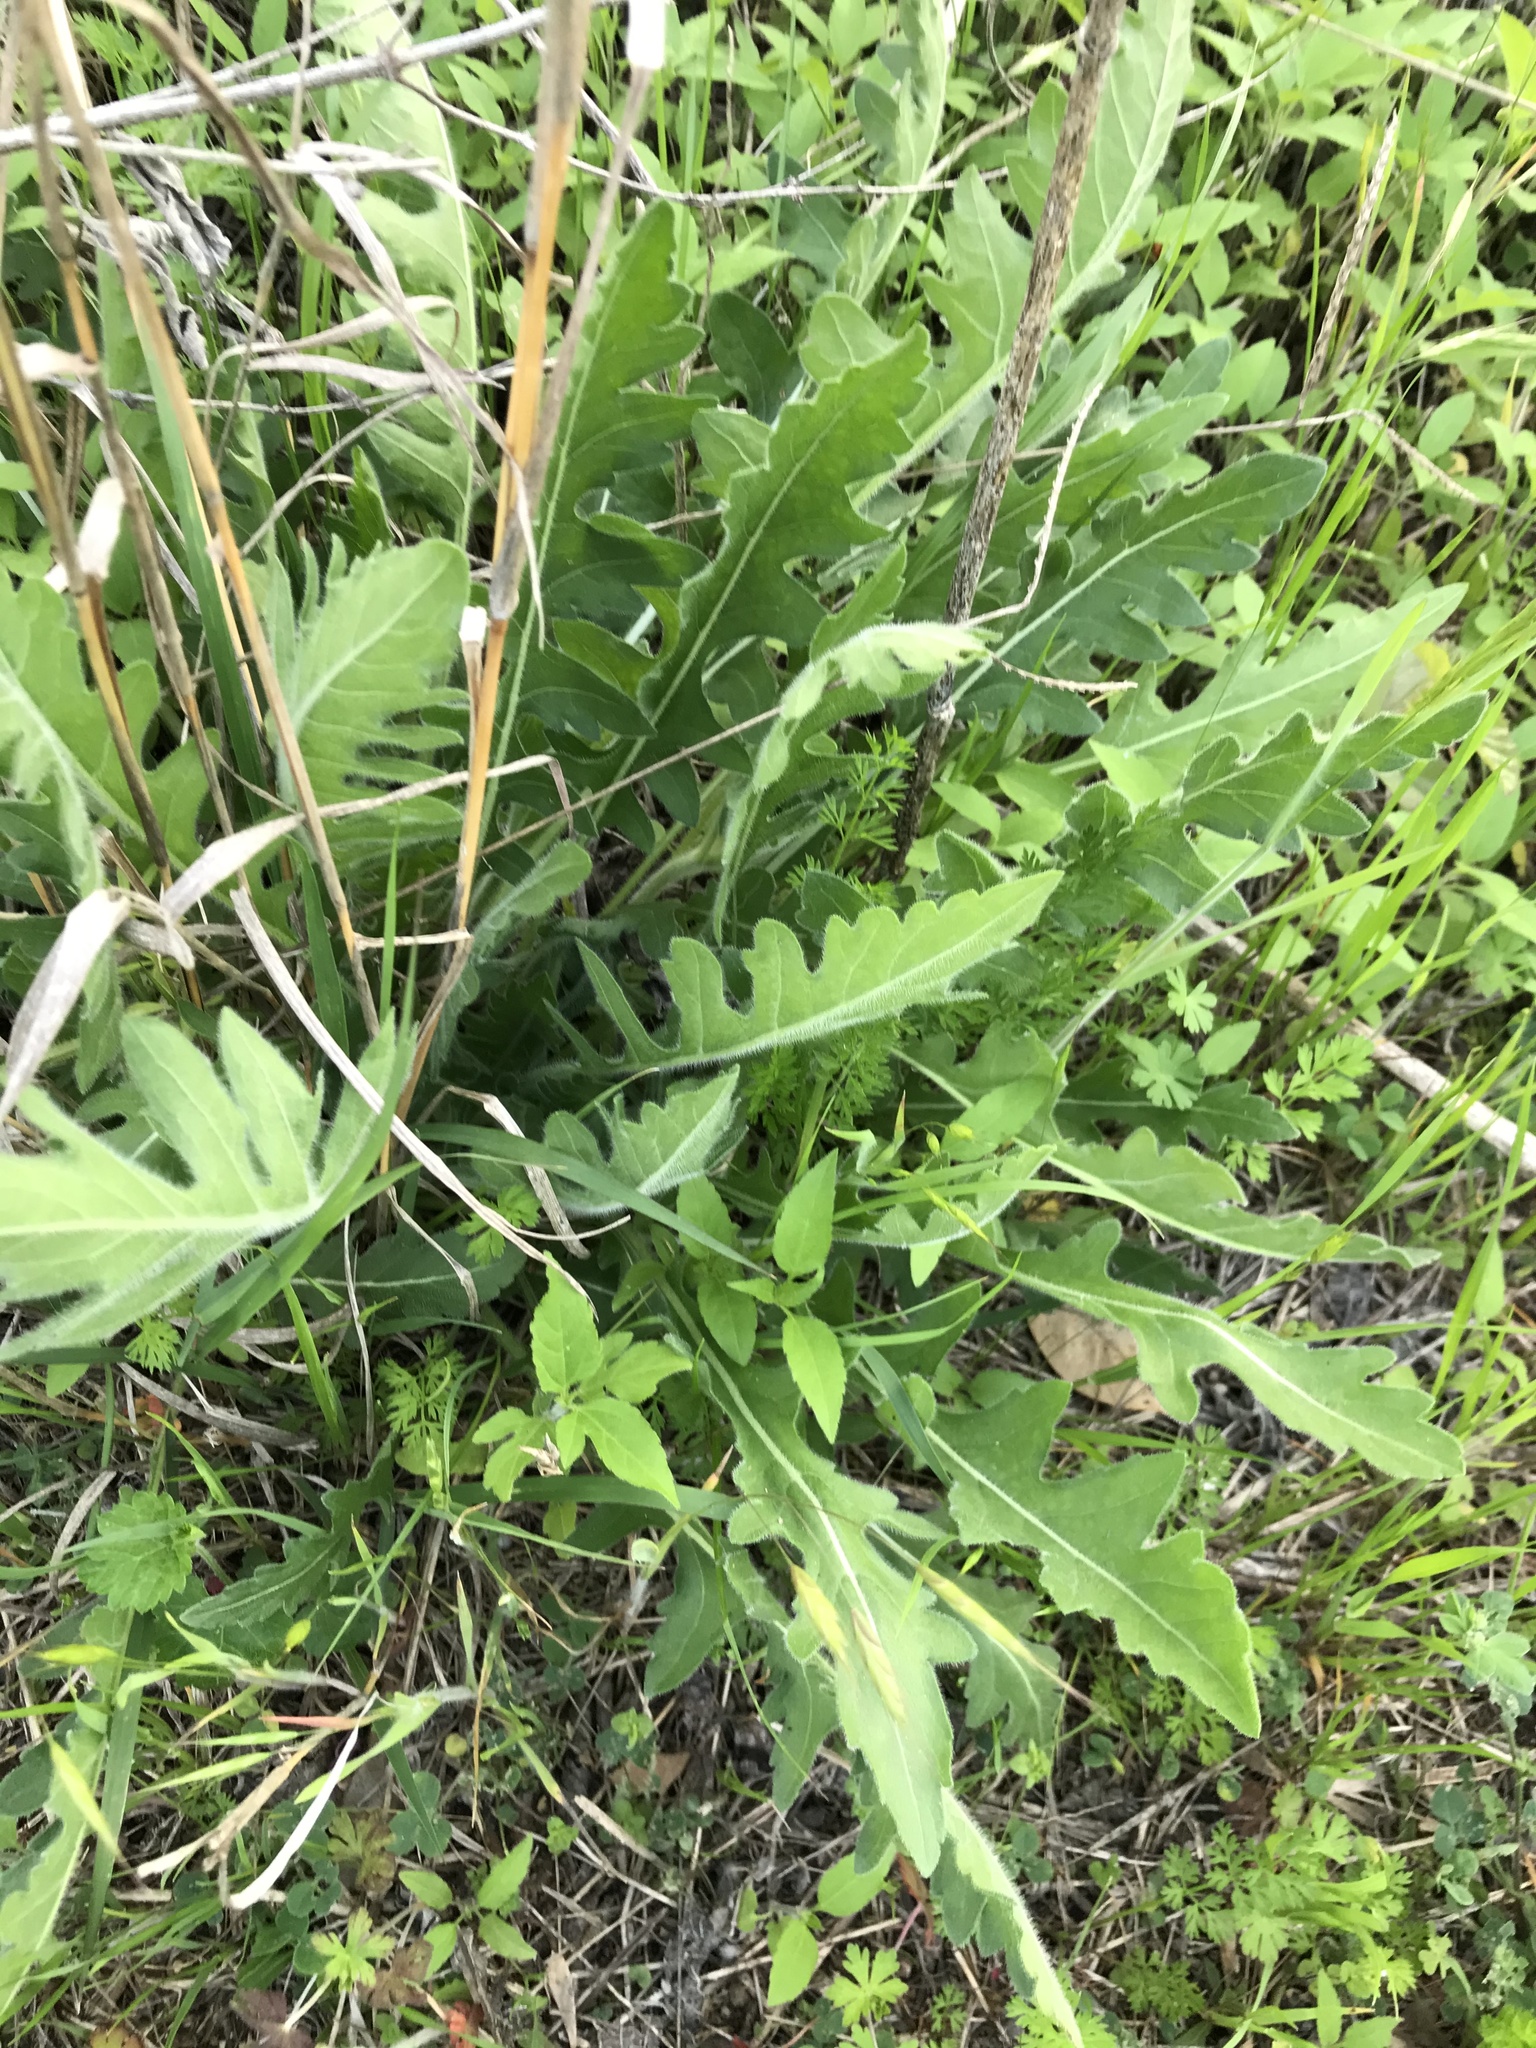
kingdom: Plantae
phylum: Tracheophyta
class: Magnoliopsida
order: Asterales
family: Asteraceae
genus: Engelmannia
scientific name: Engelmannia peristenia
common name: Engelmann's daisy
